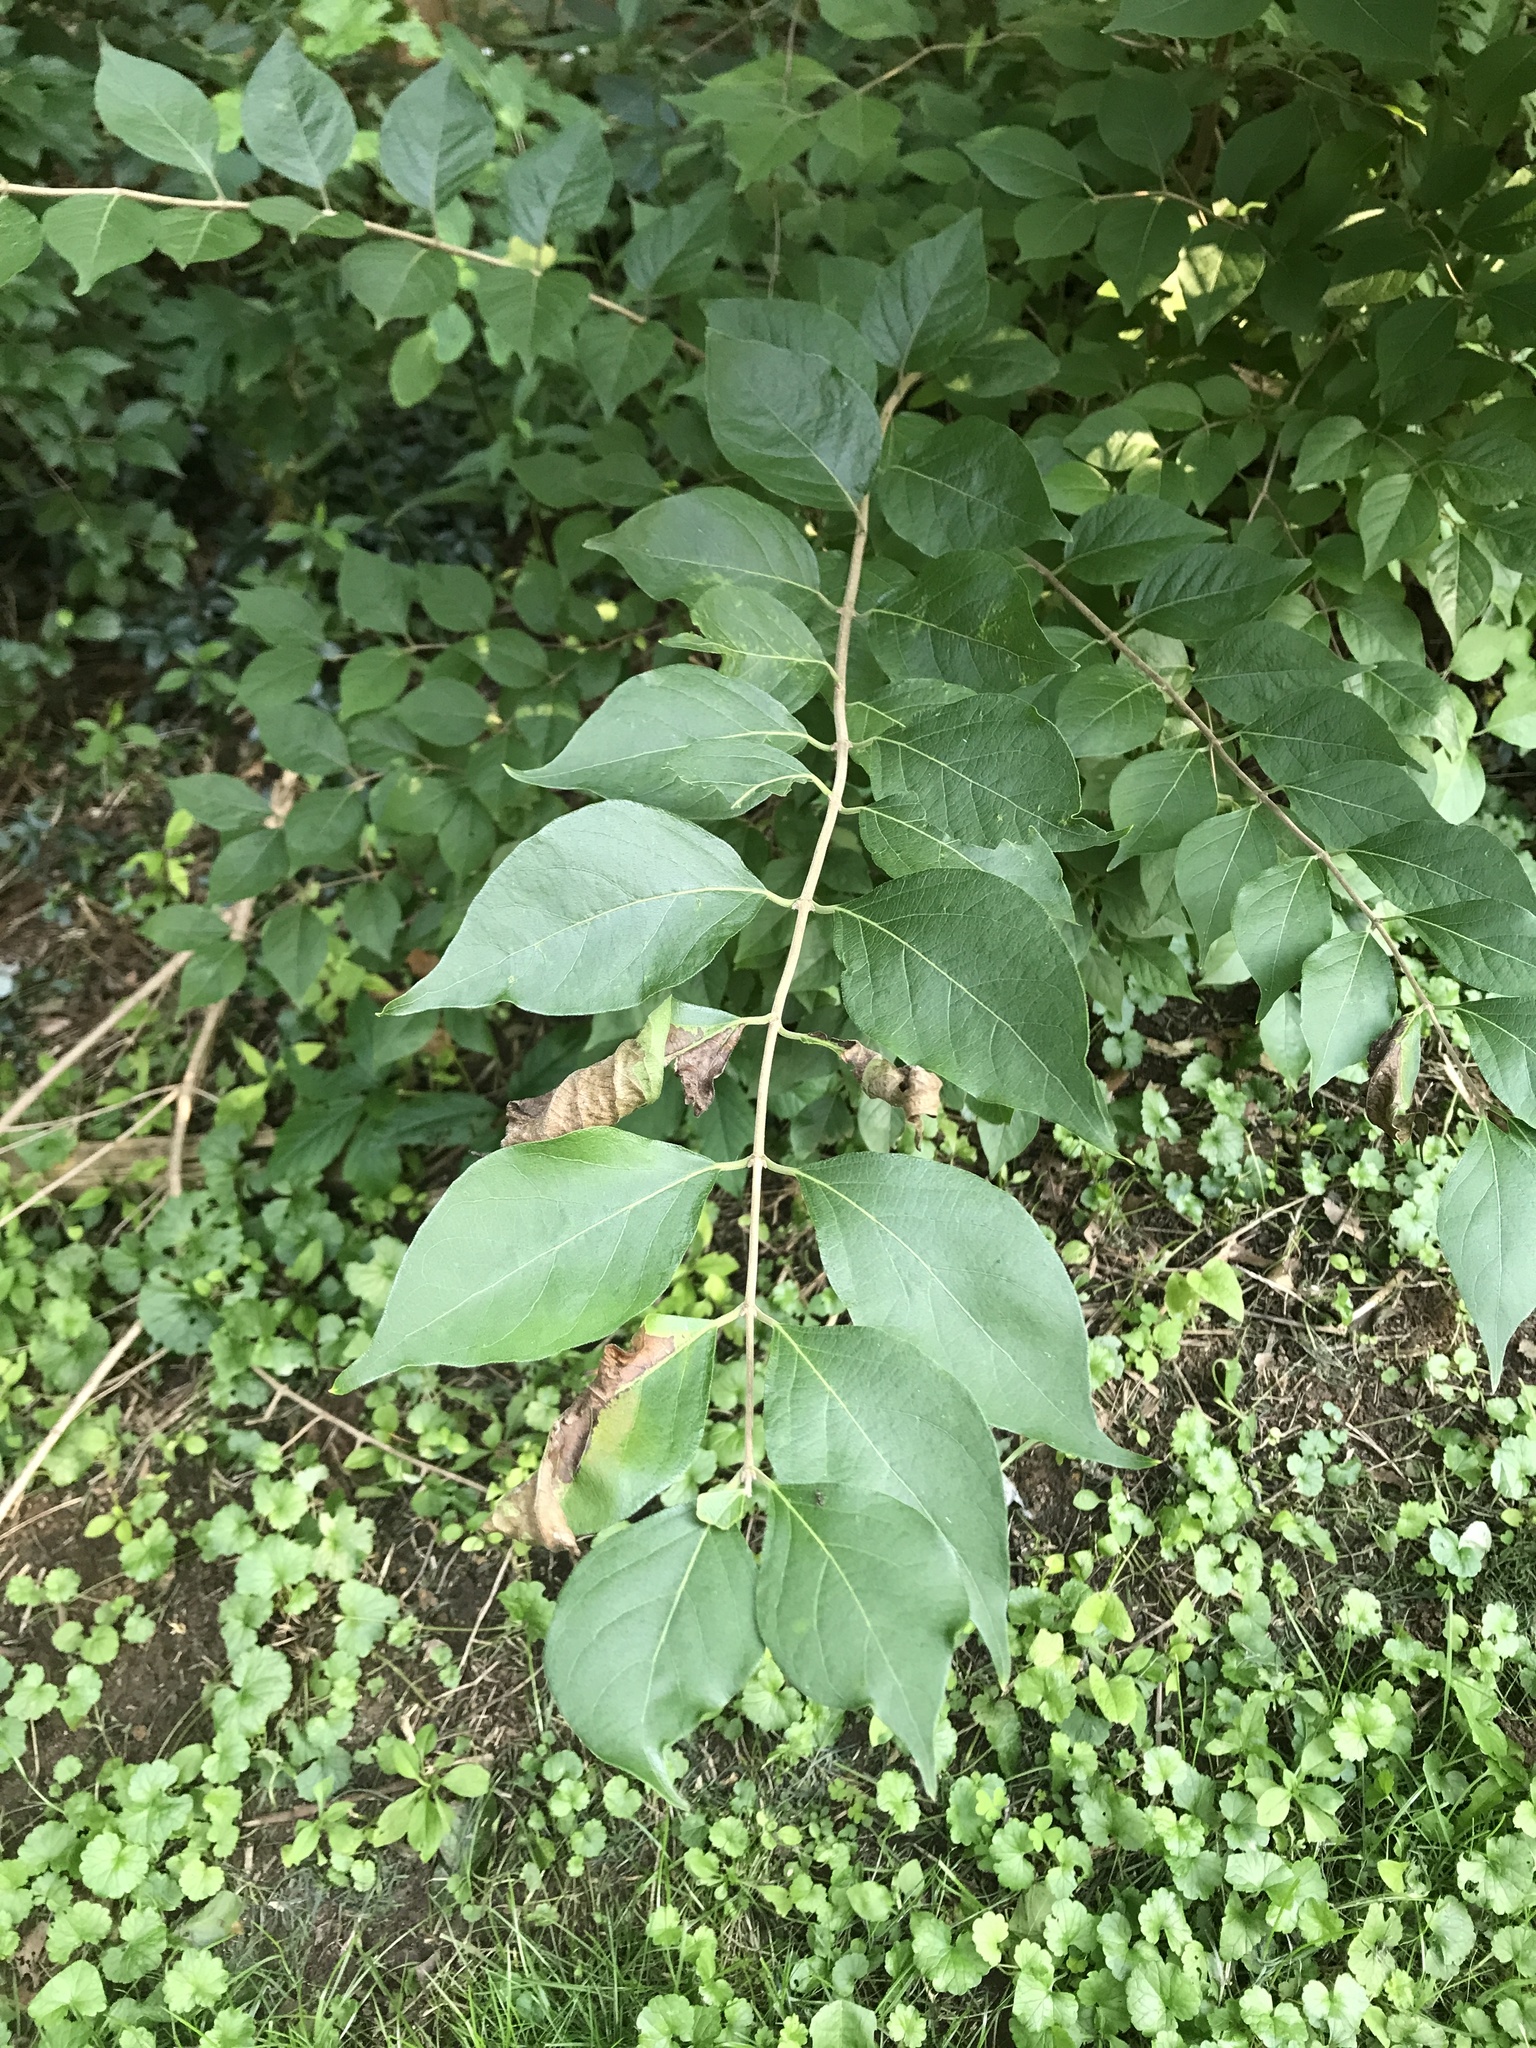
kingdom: Plantae
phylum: Tracheophyta
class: Magnoliopsida
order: Dipsacales
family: Caprifoliaceae
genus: Lonicera
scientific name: Lonicera maackii
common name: Amur honeysuckle
